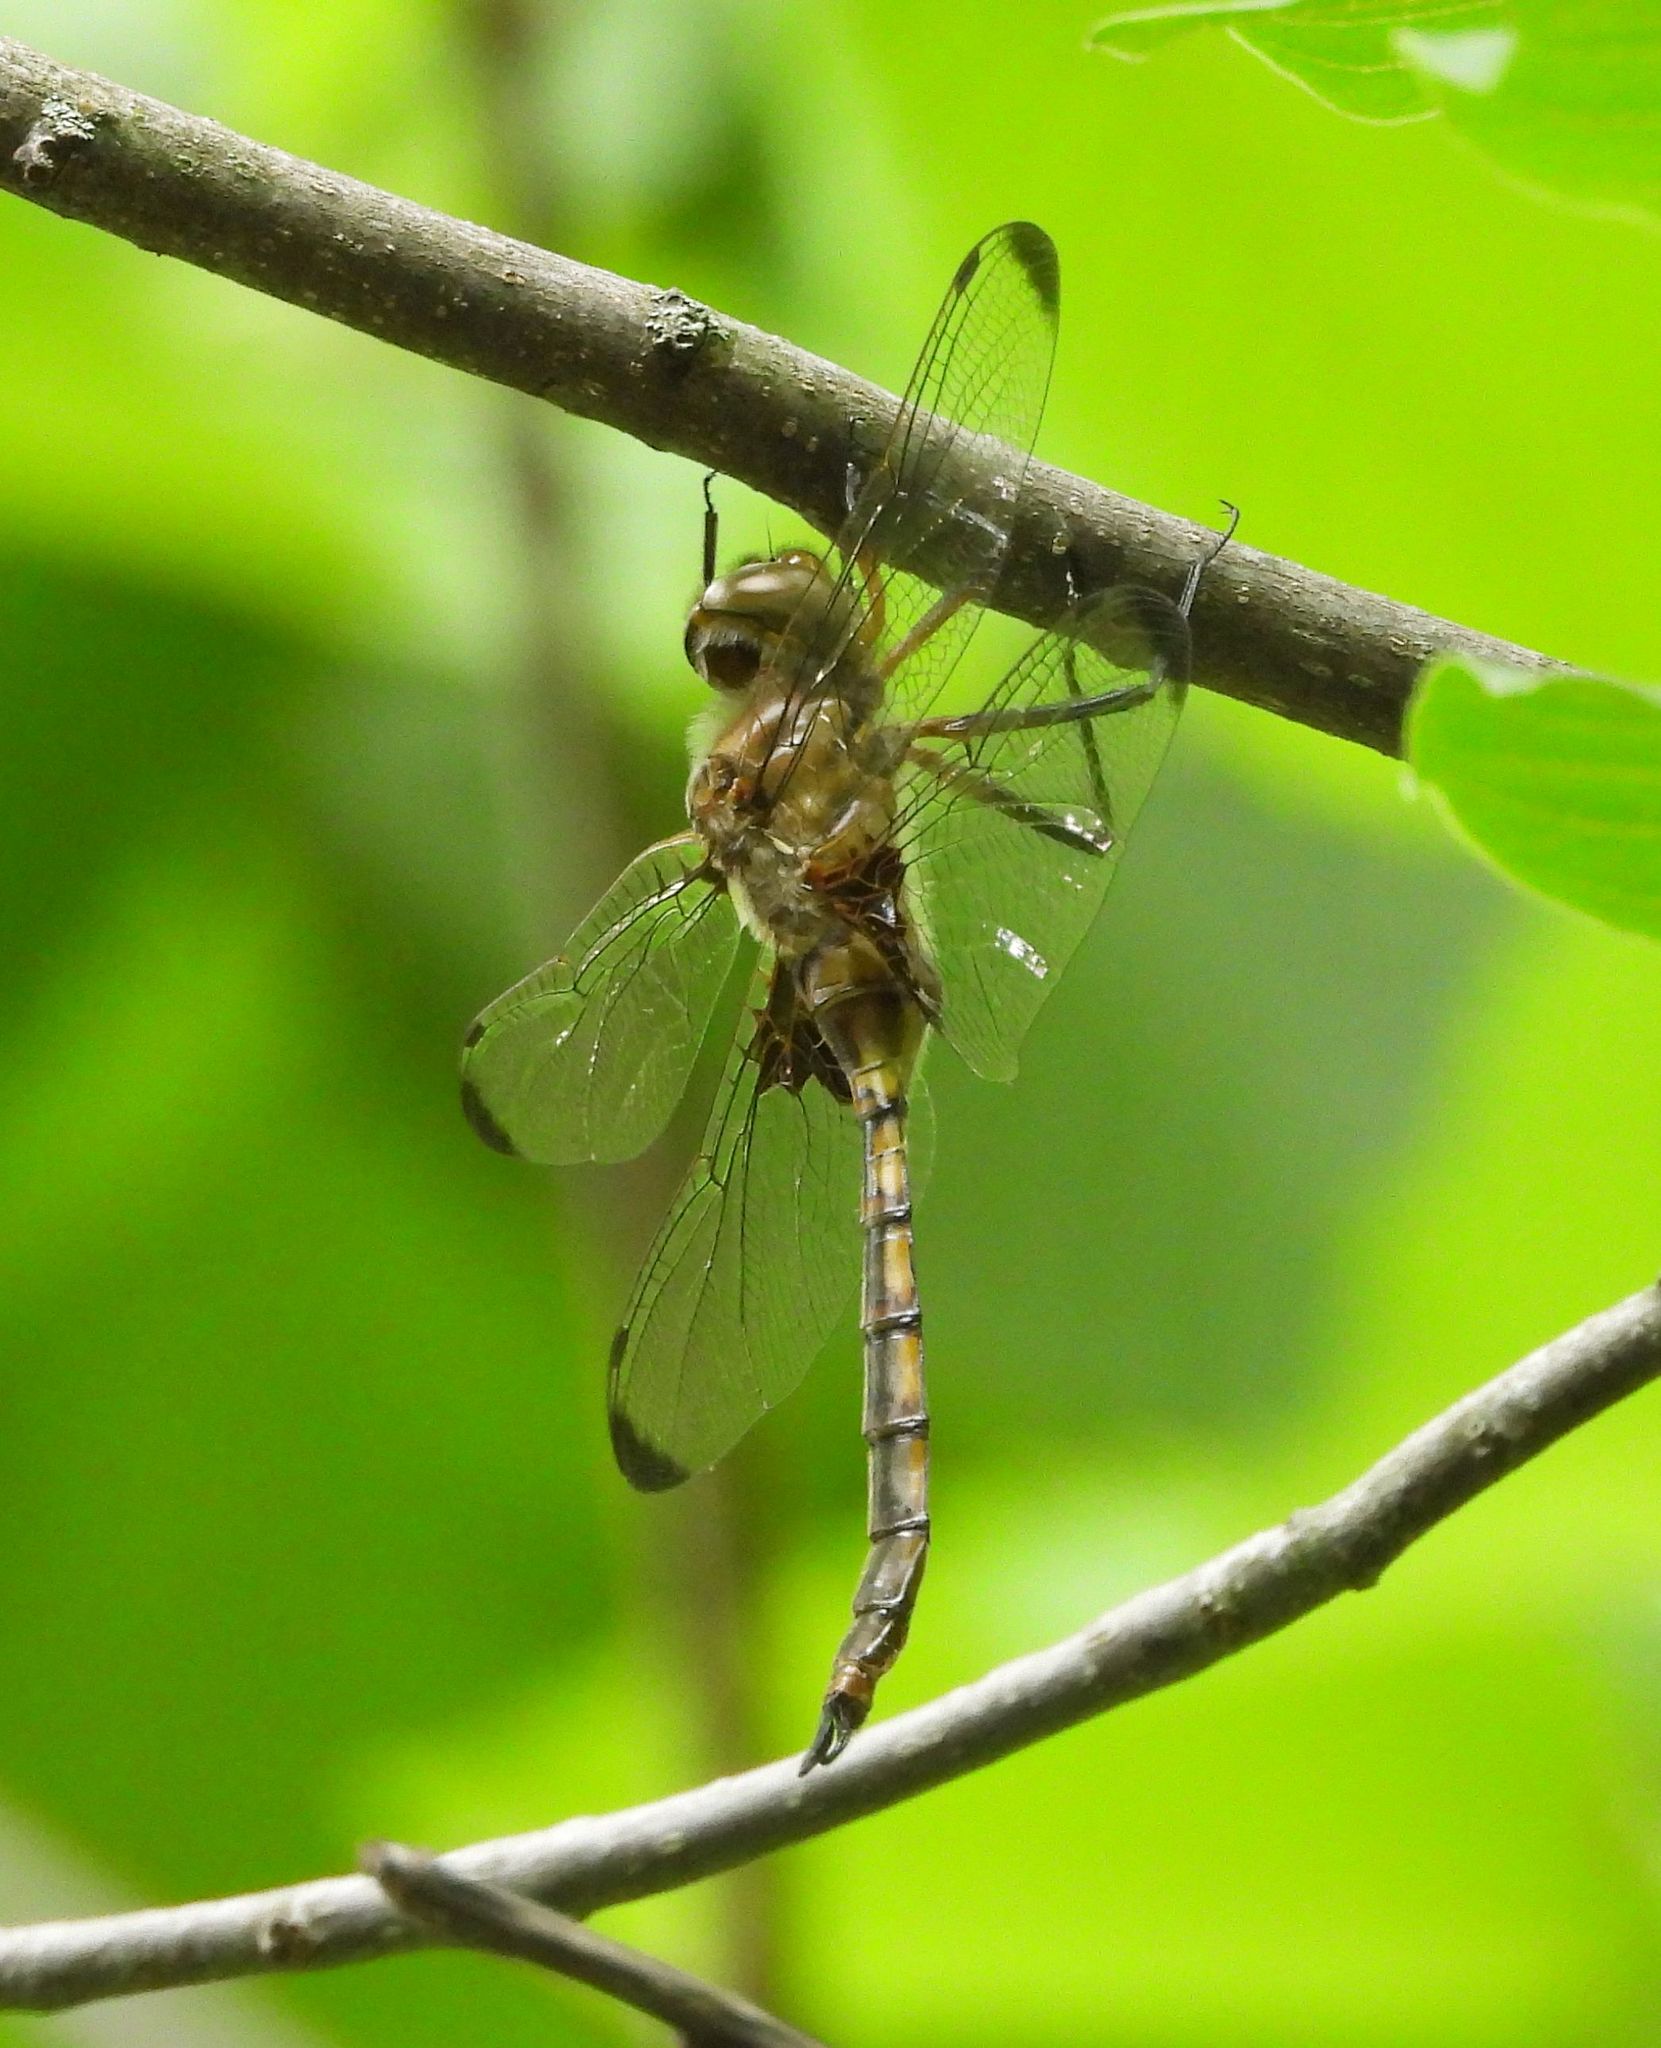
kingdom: Animalia
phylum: Arthropoda
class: Insecta
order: Odonata
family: Corduliidae
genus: Epitheca
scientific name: Epitheca princeps
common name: Prince baskettail
